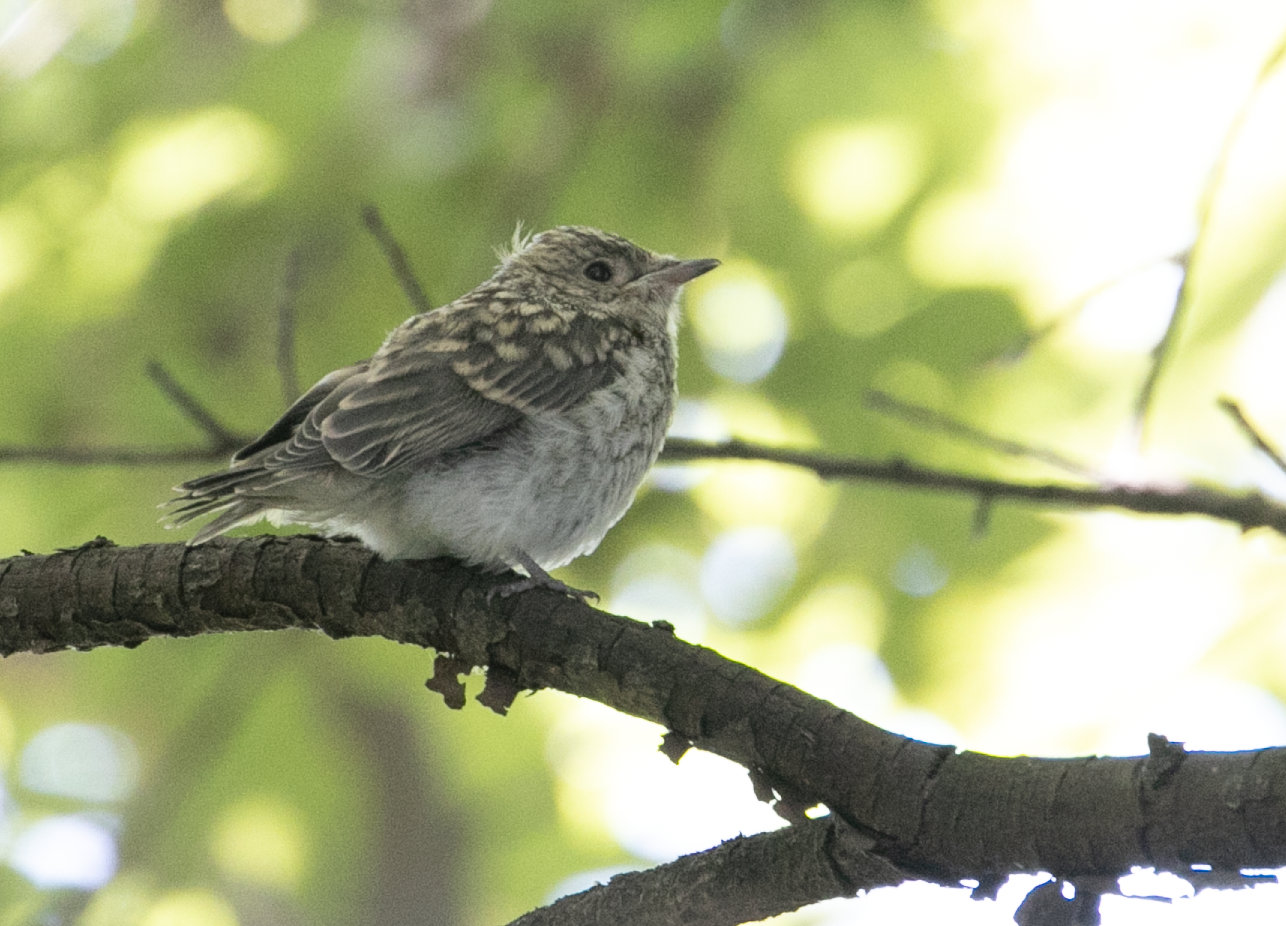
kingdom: Animalia
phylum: Chordata
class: Aves
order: Passeriformes
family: Muscicapidae
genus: Muscicapa
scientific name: Muscicapa striata
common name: Spotted flycatcher
